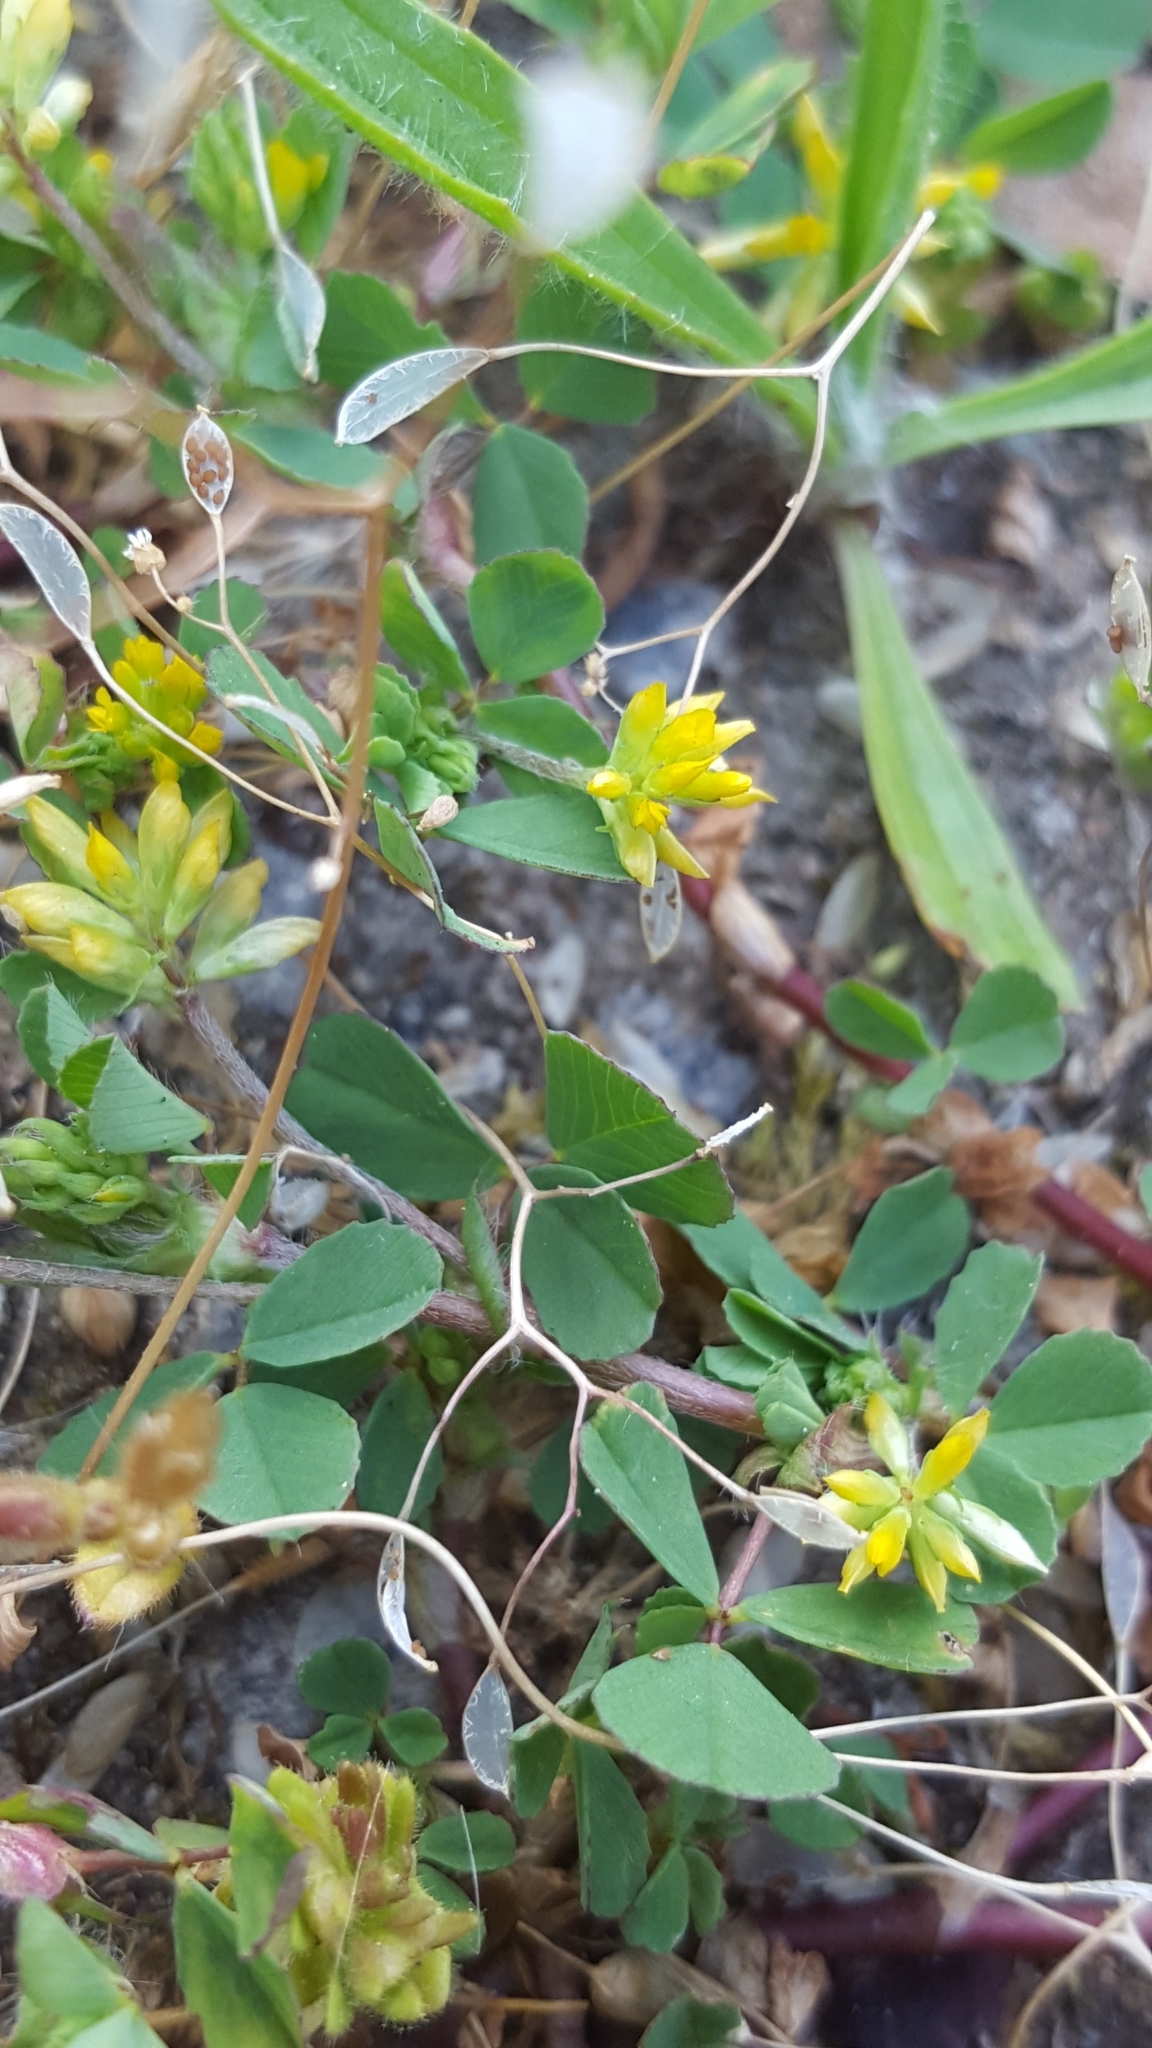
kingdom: Plantae
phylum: Tracheophyta
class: Magnoliopsida
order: Fabales
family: Fabaceae
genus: Trifolium
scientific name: Trifolium dubium
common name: Suckling clover
